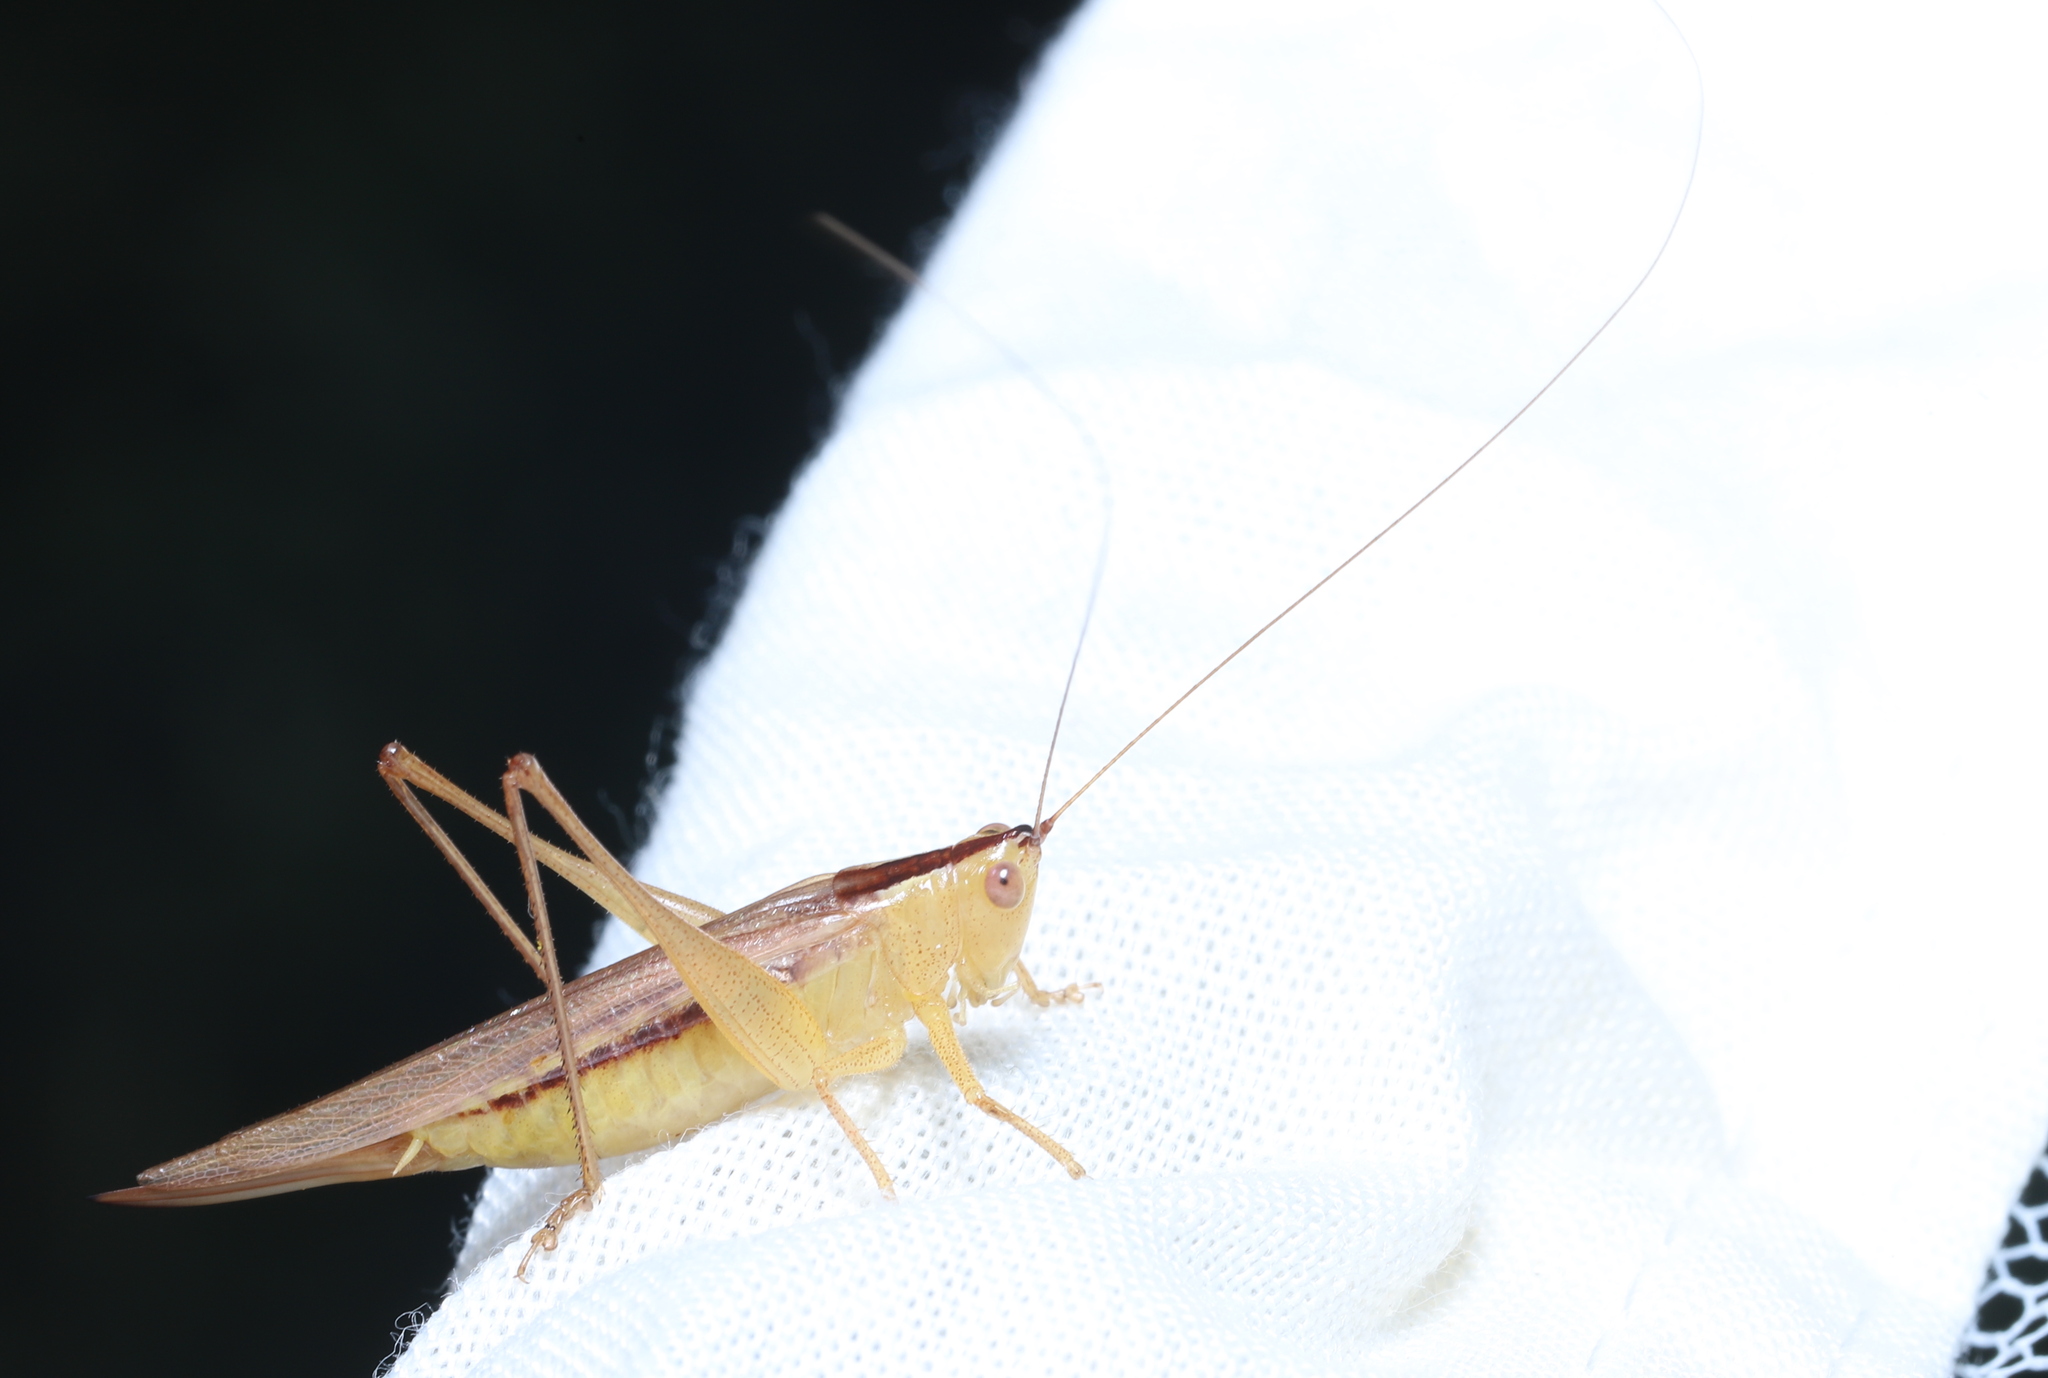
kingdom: Animalia
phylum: Arthropoda
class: Insecta
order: Orthoptera
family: Tettigoniidae
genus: Conocephalus
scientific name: Conocephalus fasciatus
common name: Slender meadow katydid
